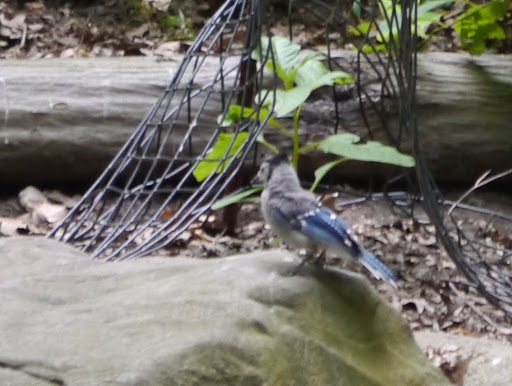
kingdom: Animalia
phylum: Chordata
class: Aves
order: Passeriformes
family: Corvidae
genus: Cyanocitta
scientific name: Cyanocitta cristata
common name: Blue jay
